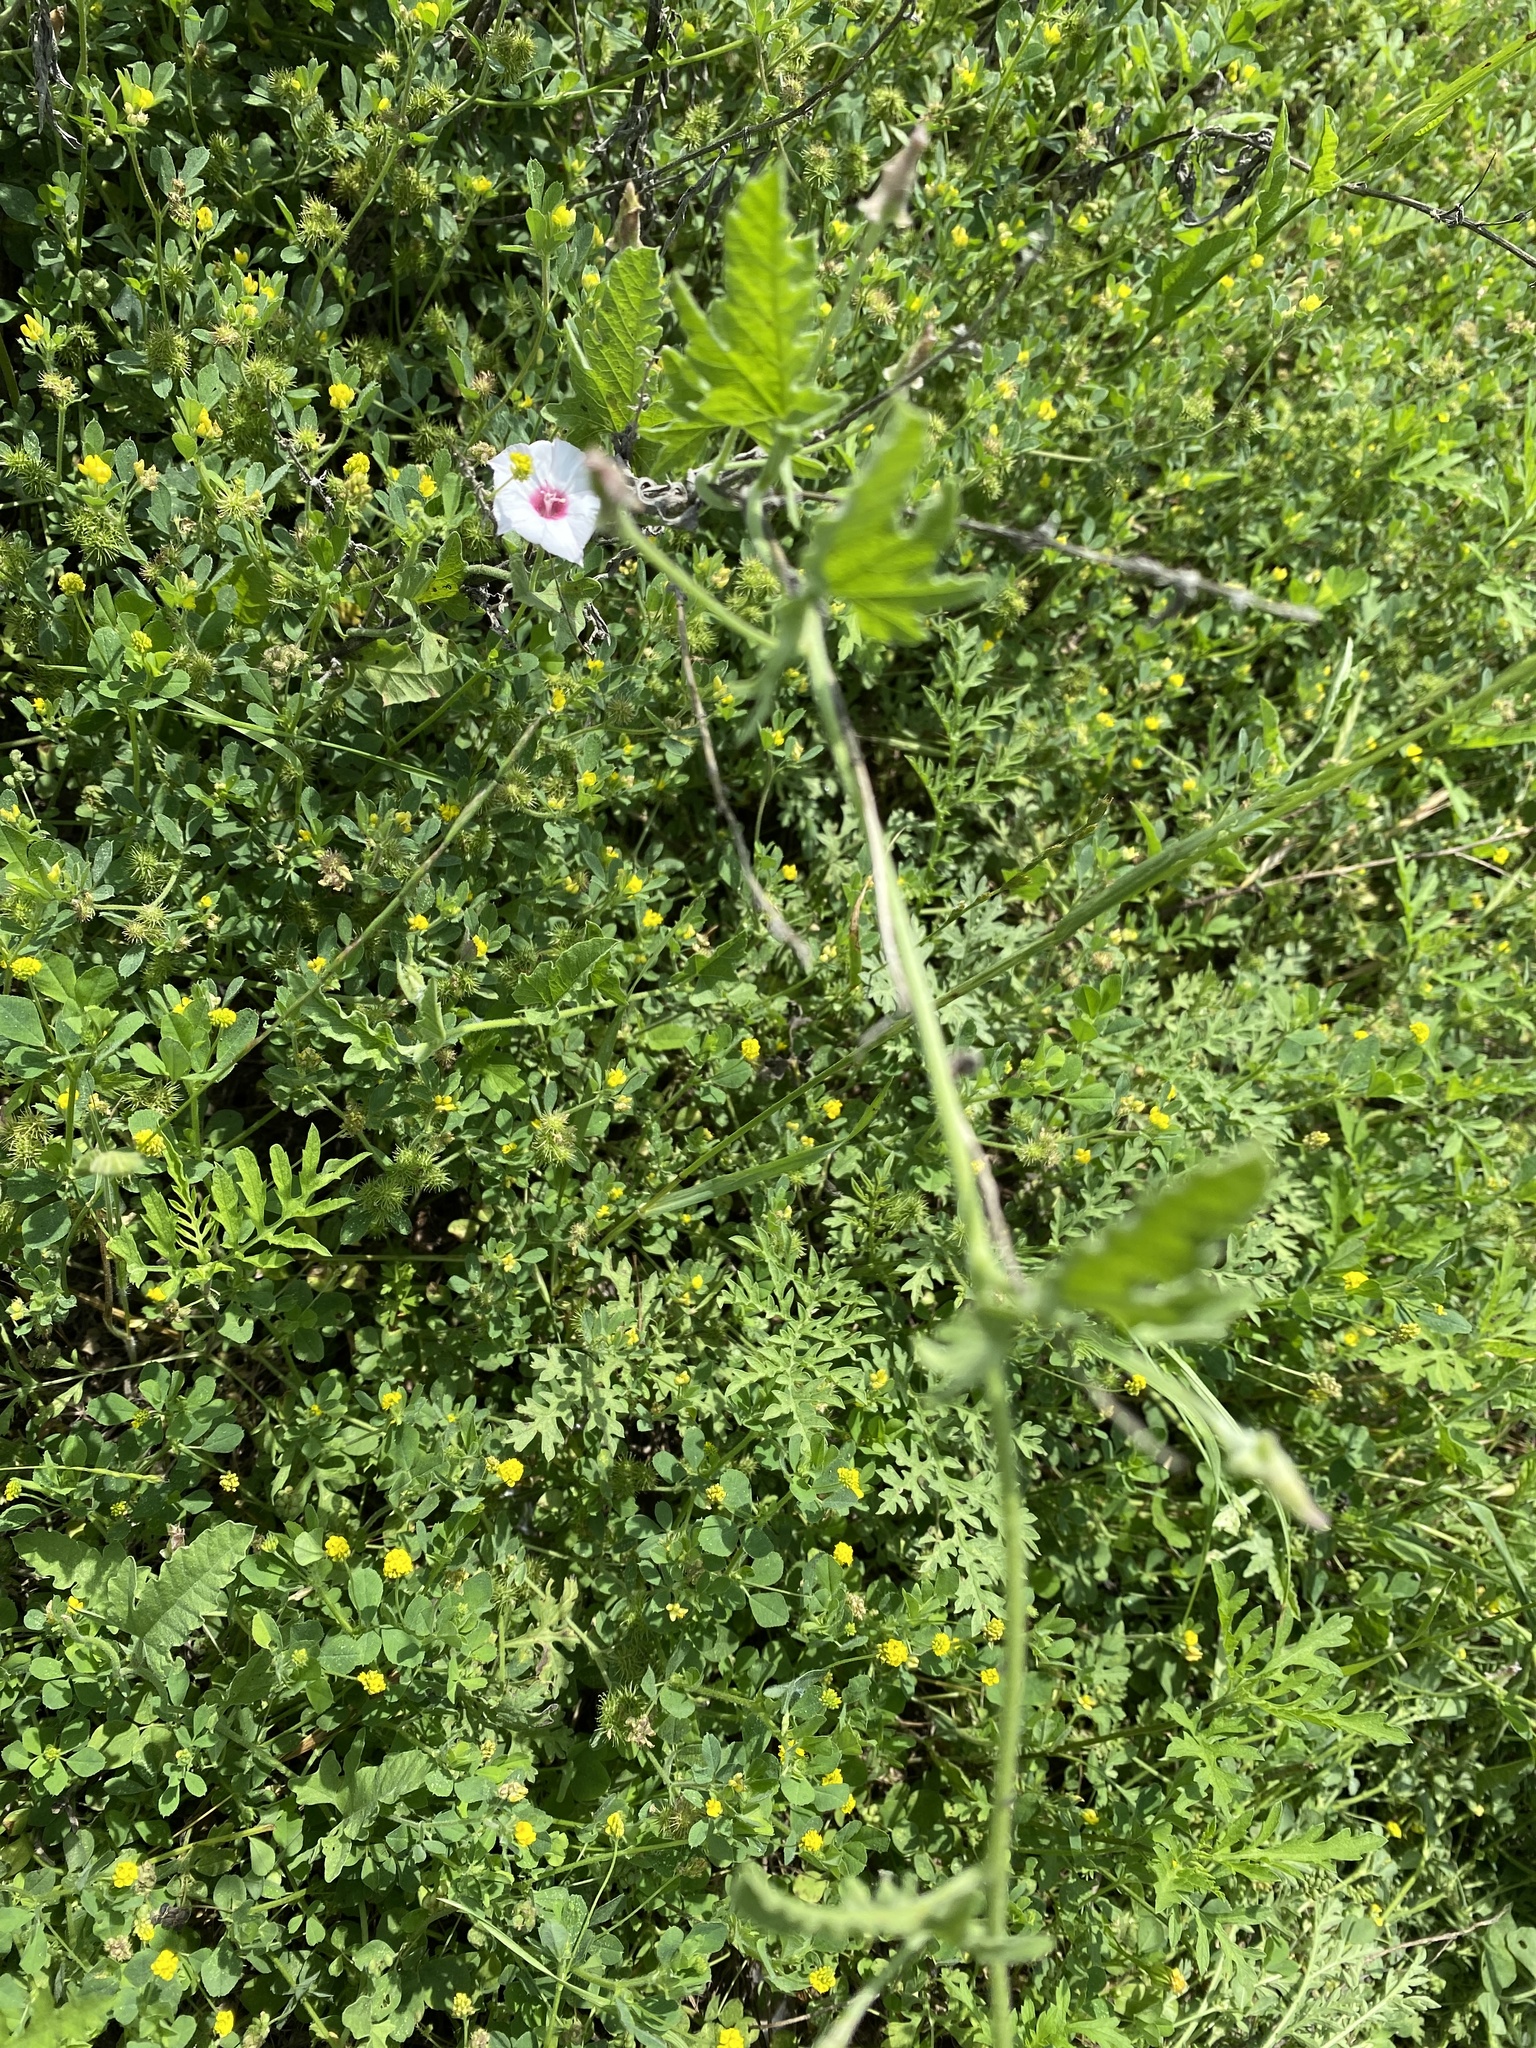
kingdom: Plantae
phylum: Tracheophyta
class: Magnoliopsida
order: Solanales
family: Convolvulaceae
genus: Convolvulus
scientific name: Convolvulus equitans
